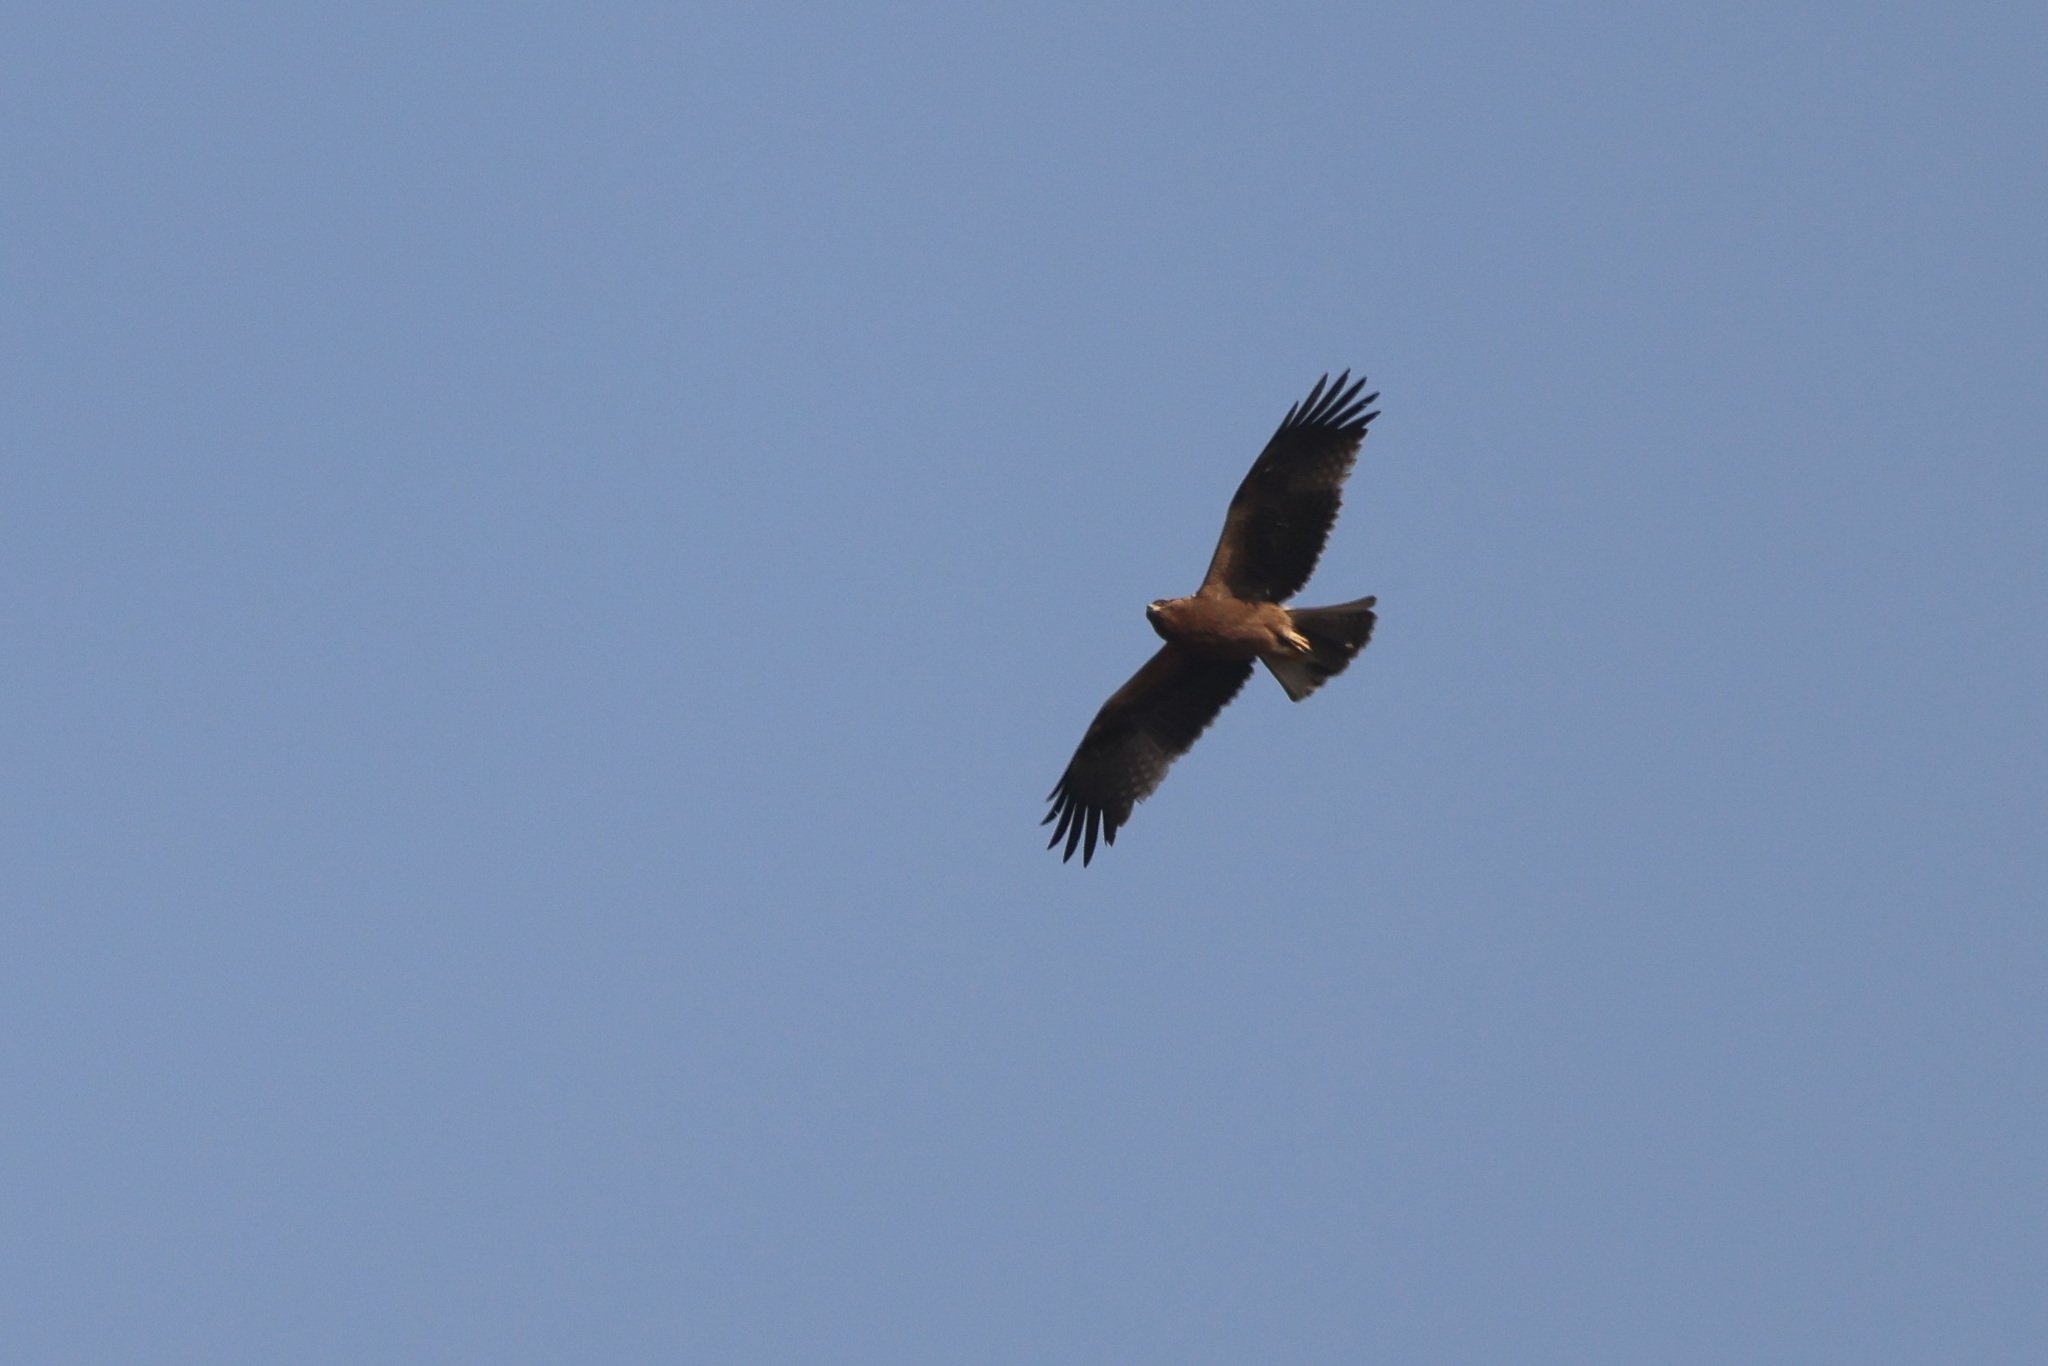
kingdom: Animalia
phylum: Chordata
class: Aves
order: Accipitriformes
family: Accipitridae
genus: Hieraaetus
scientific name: Hieraaetus pennatus
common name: Booted eagle
